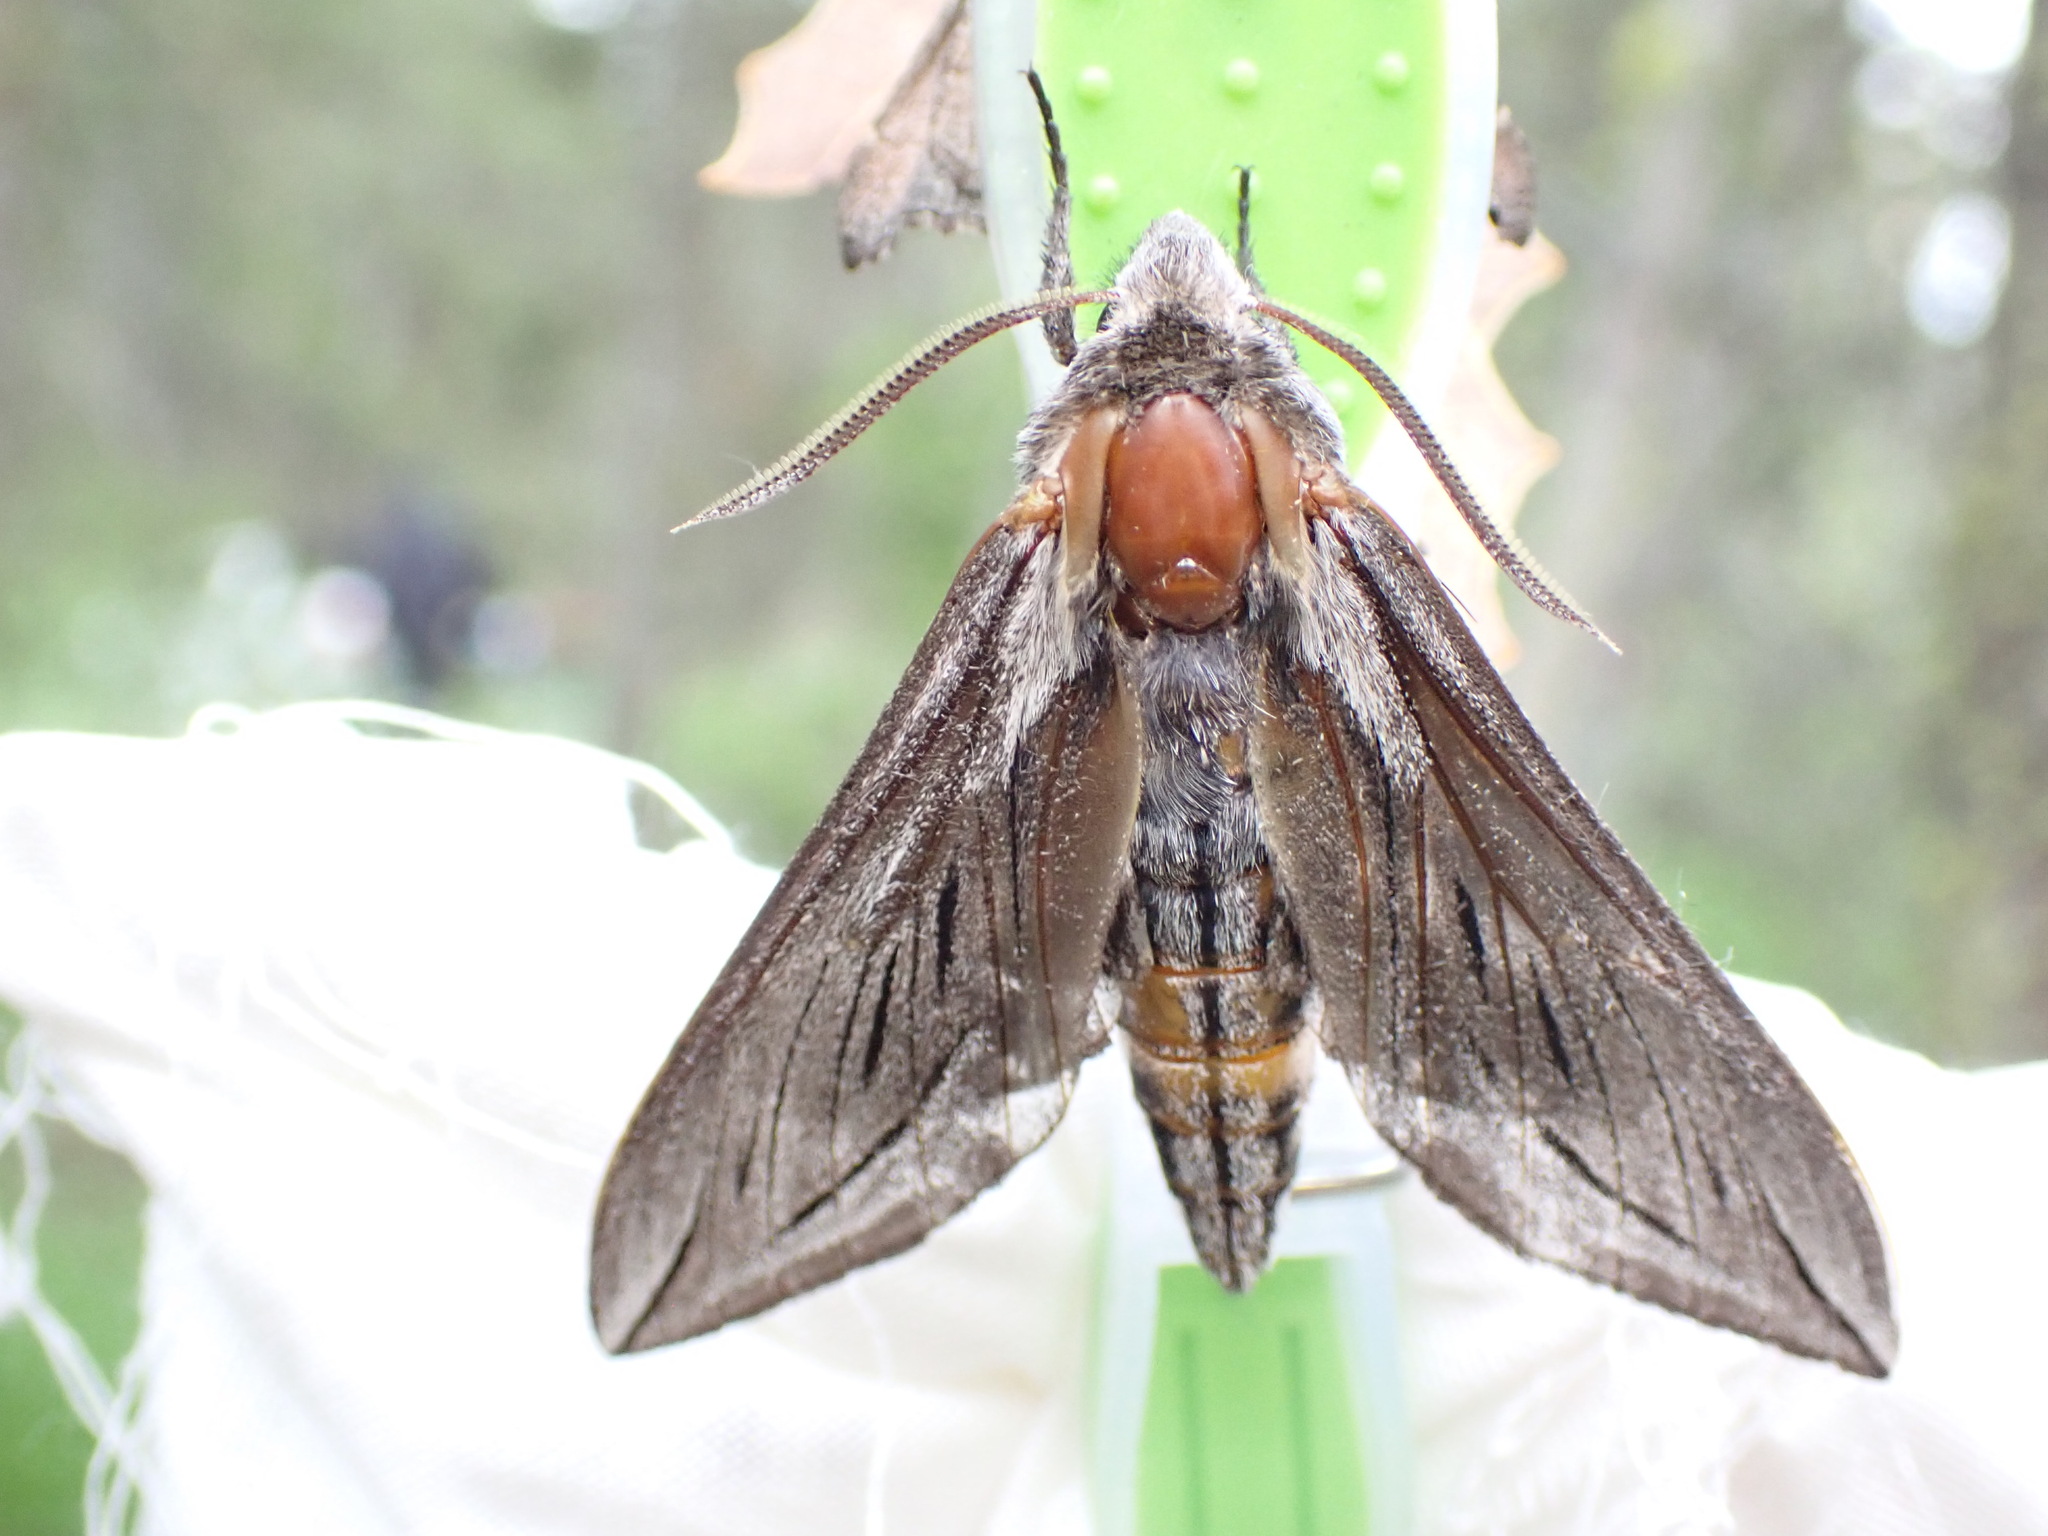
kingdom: Animalia
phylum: Arthropoda
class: Insecta
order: Lepidoptera
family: Sphingidae
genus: Sphinx
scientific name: Sphinx vashti
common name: Snowberry sphinx
